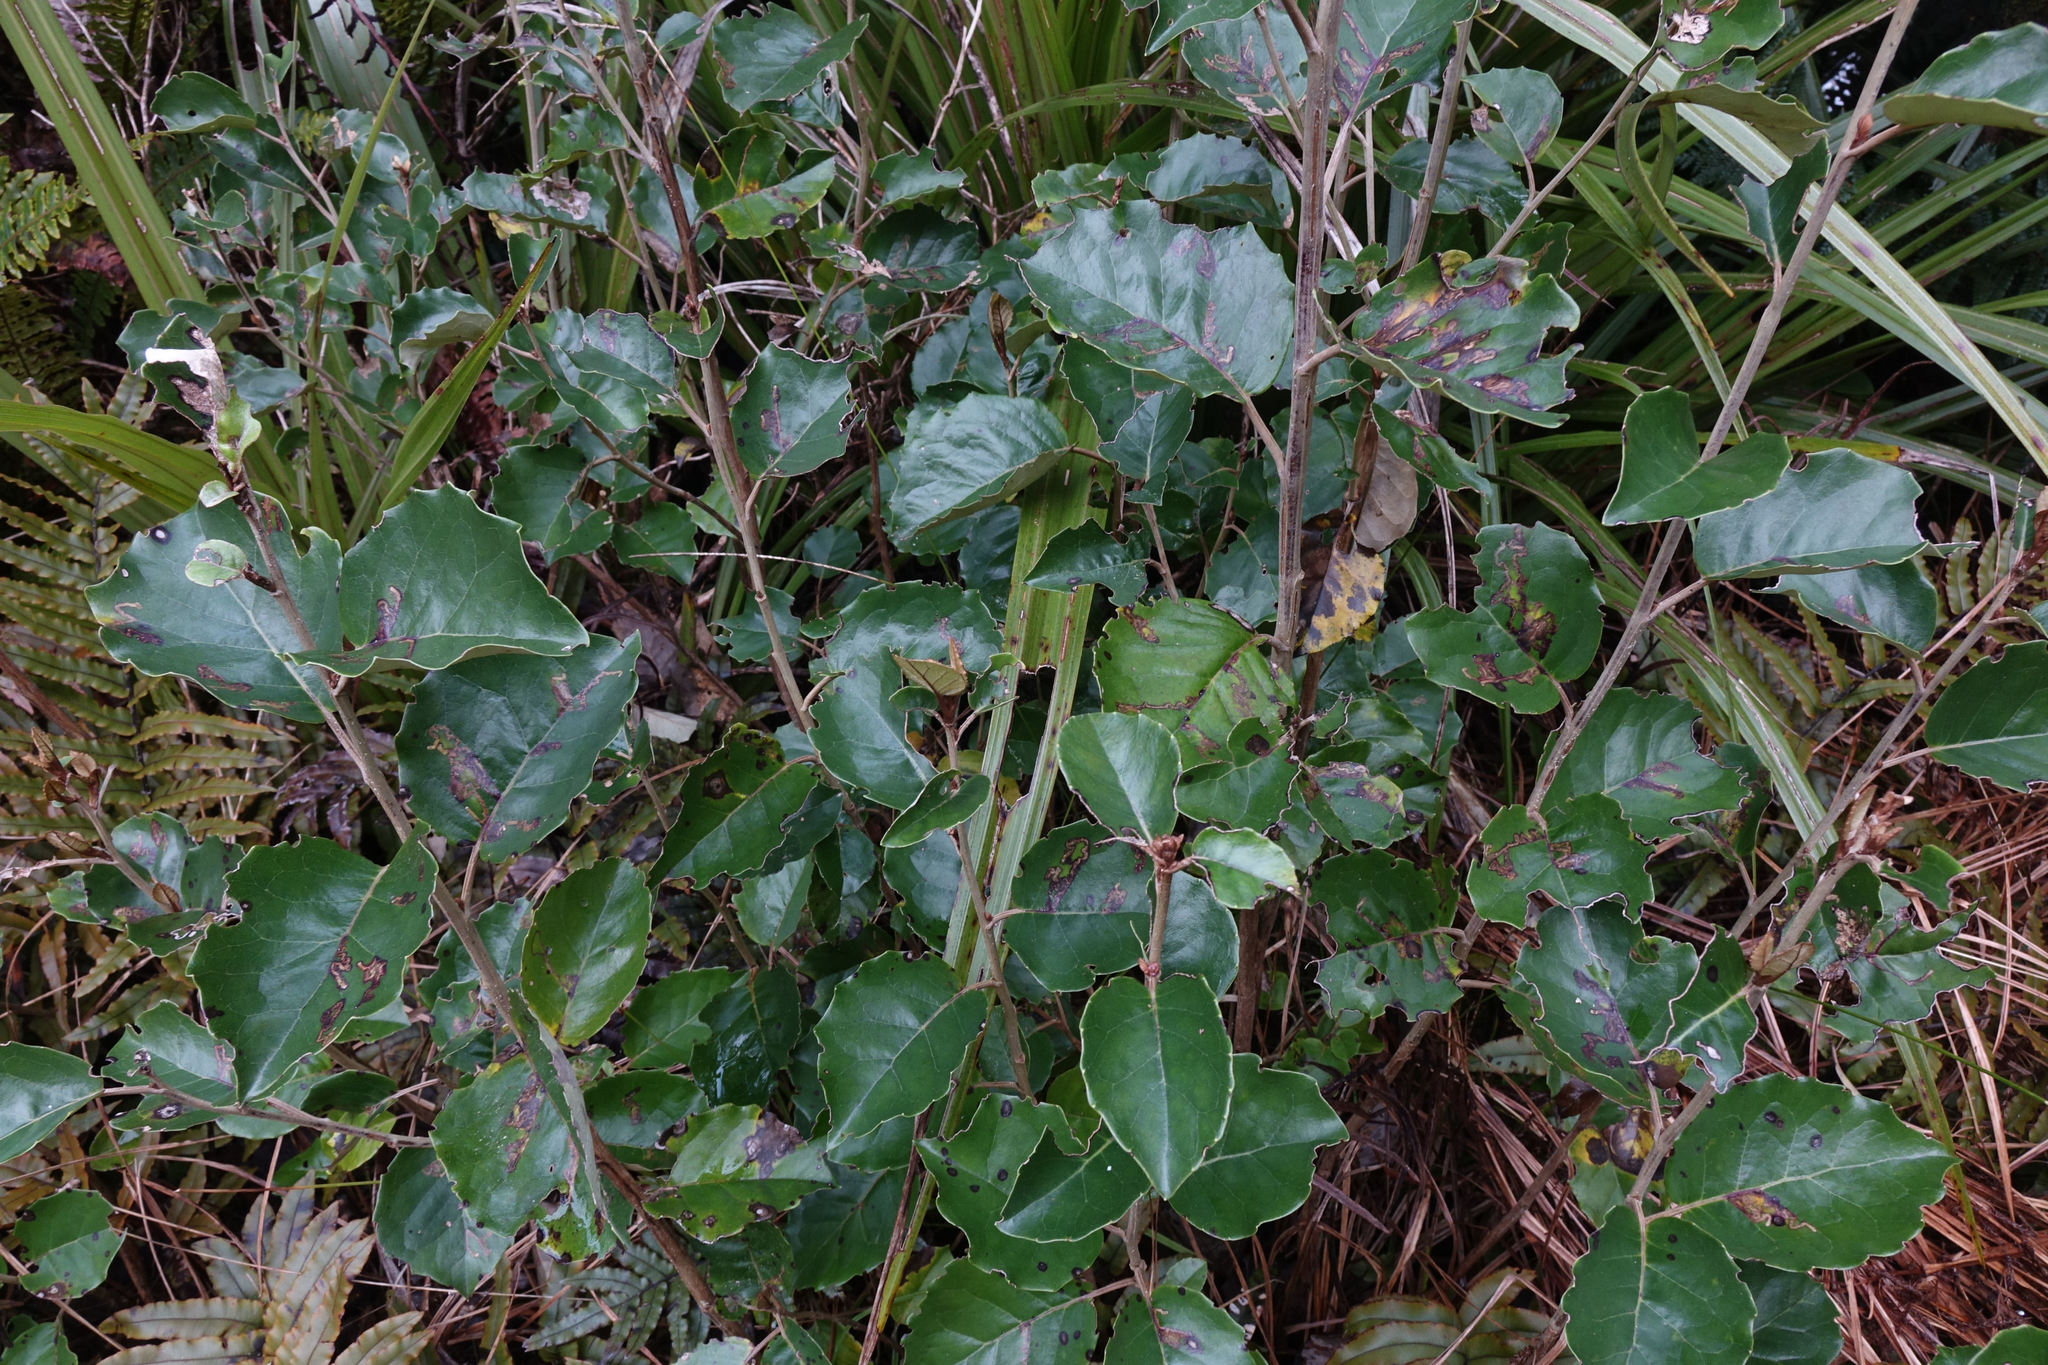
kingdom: Plantae
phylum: Tracheophyta
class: Magnoliopsida
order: Asterales
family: Asteraceae
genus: Olearia
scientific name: Olearia arborescens
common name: Glossy tree daisy
